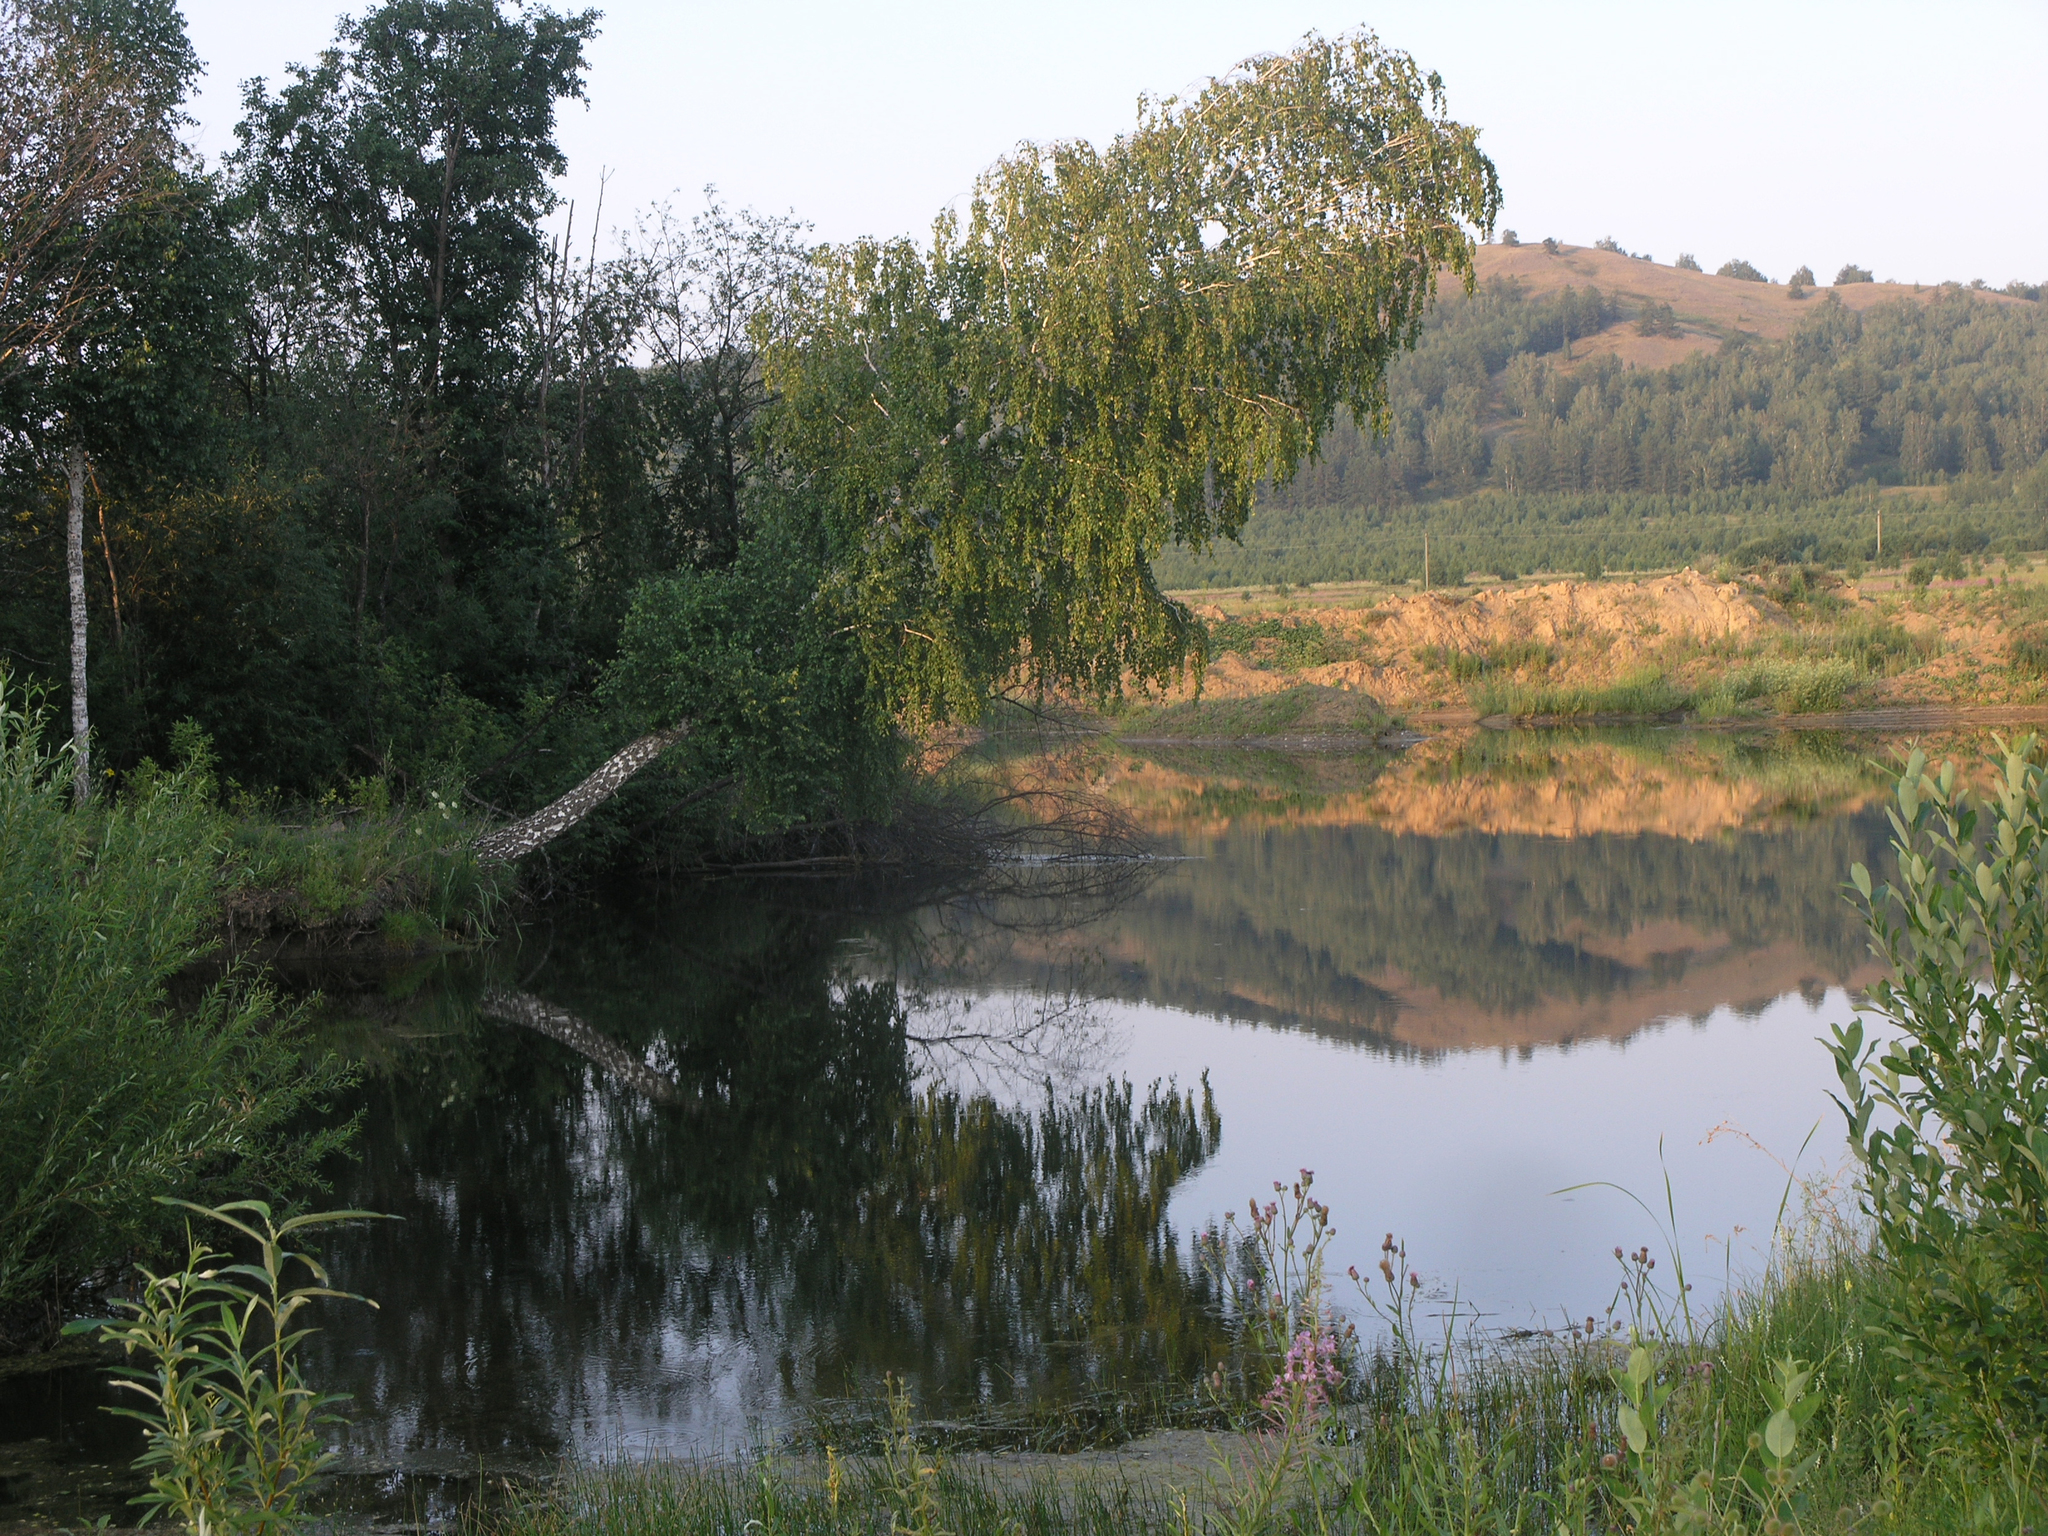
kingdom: Plantae
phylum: Tracheophyta
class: Magnoliopsida
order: Fagales
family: Betulaceae
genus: Betula
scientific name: Betula pendula
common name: Silver birch
